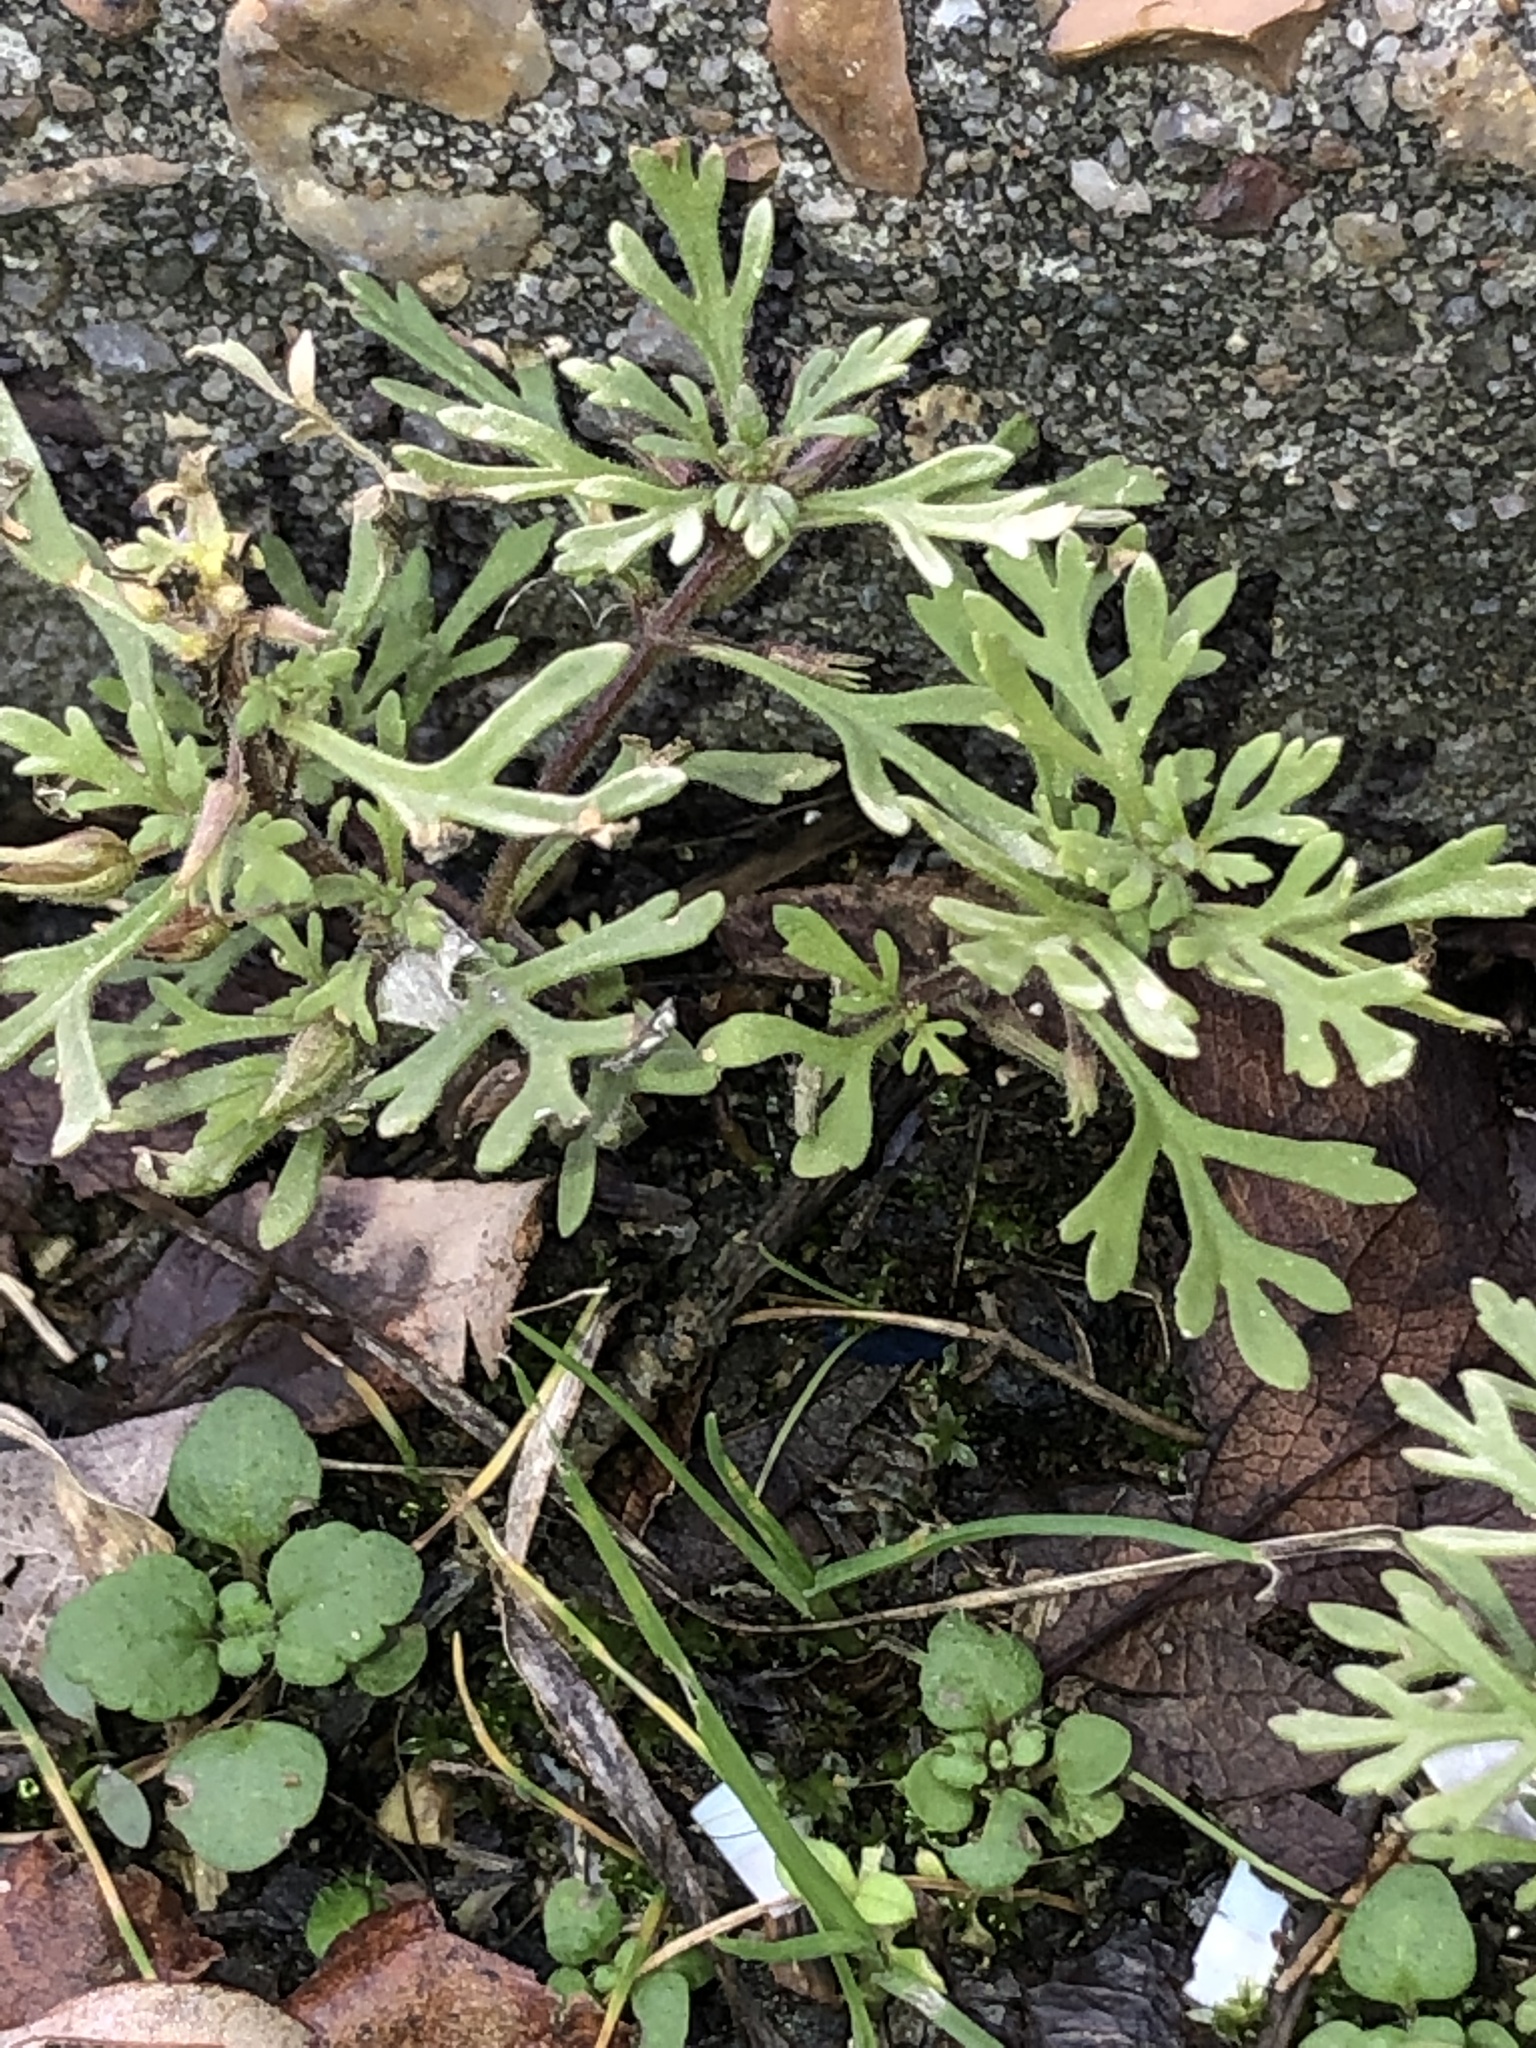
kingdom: Plantae
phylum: Tracheophyta
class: Magnoliopsida
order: Lamiales
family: Plantaginaceae
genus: Leucospora
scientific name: Leucospora multifida
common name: Narrow-leaf paleseed
